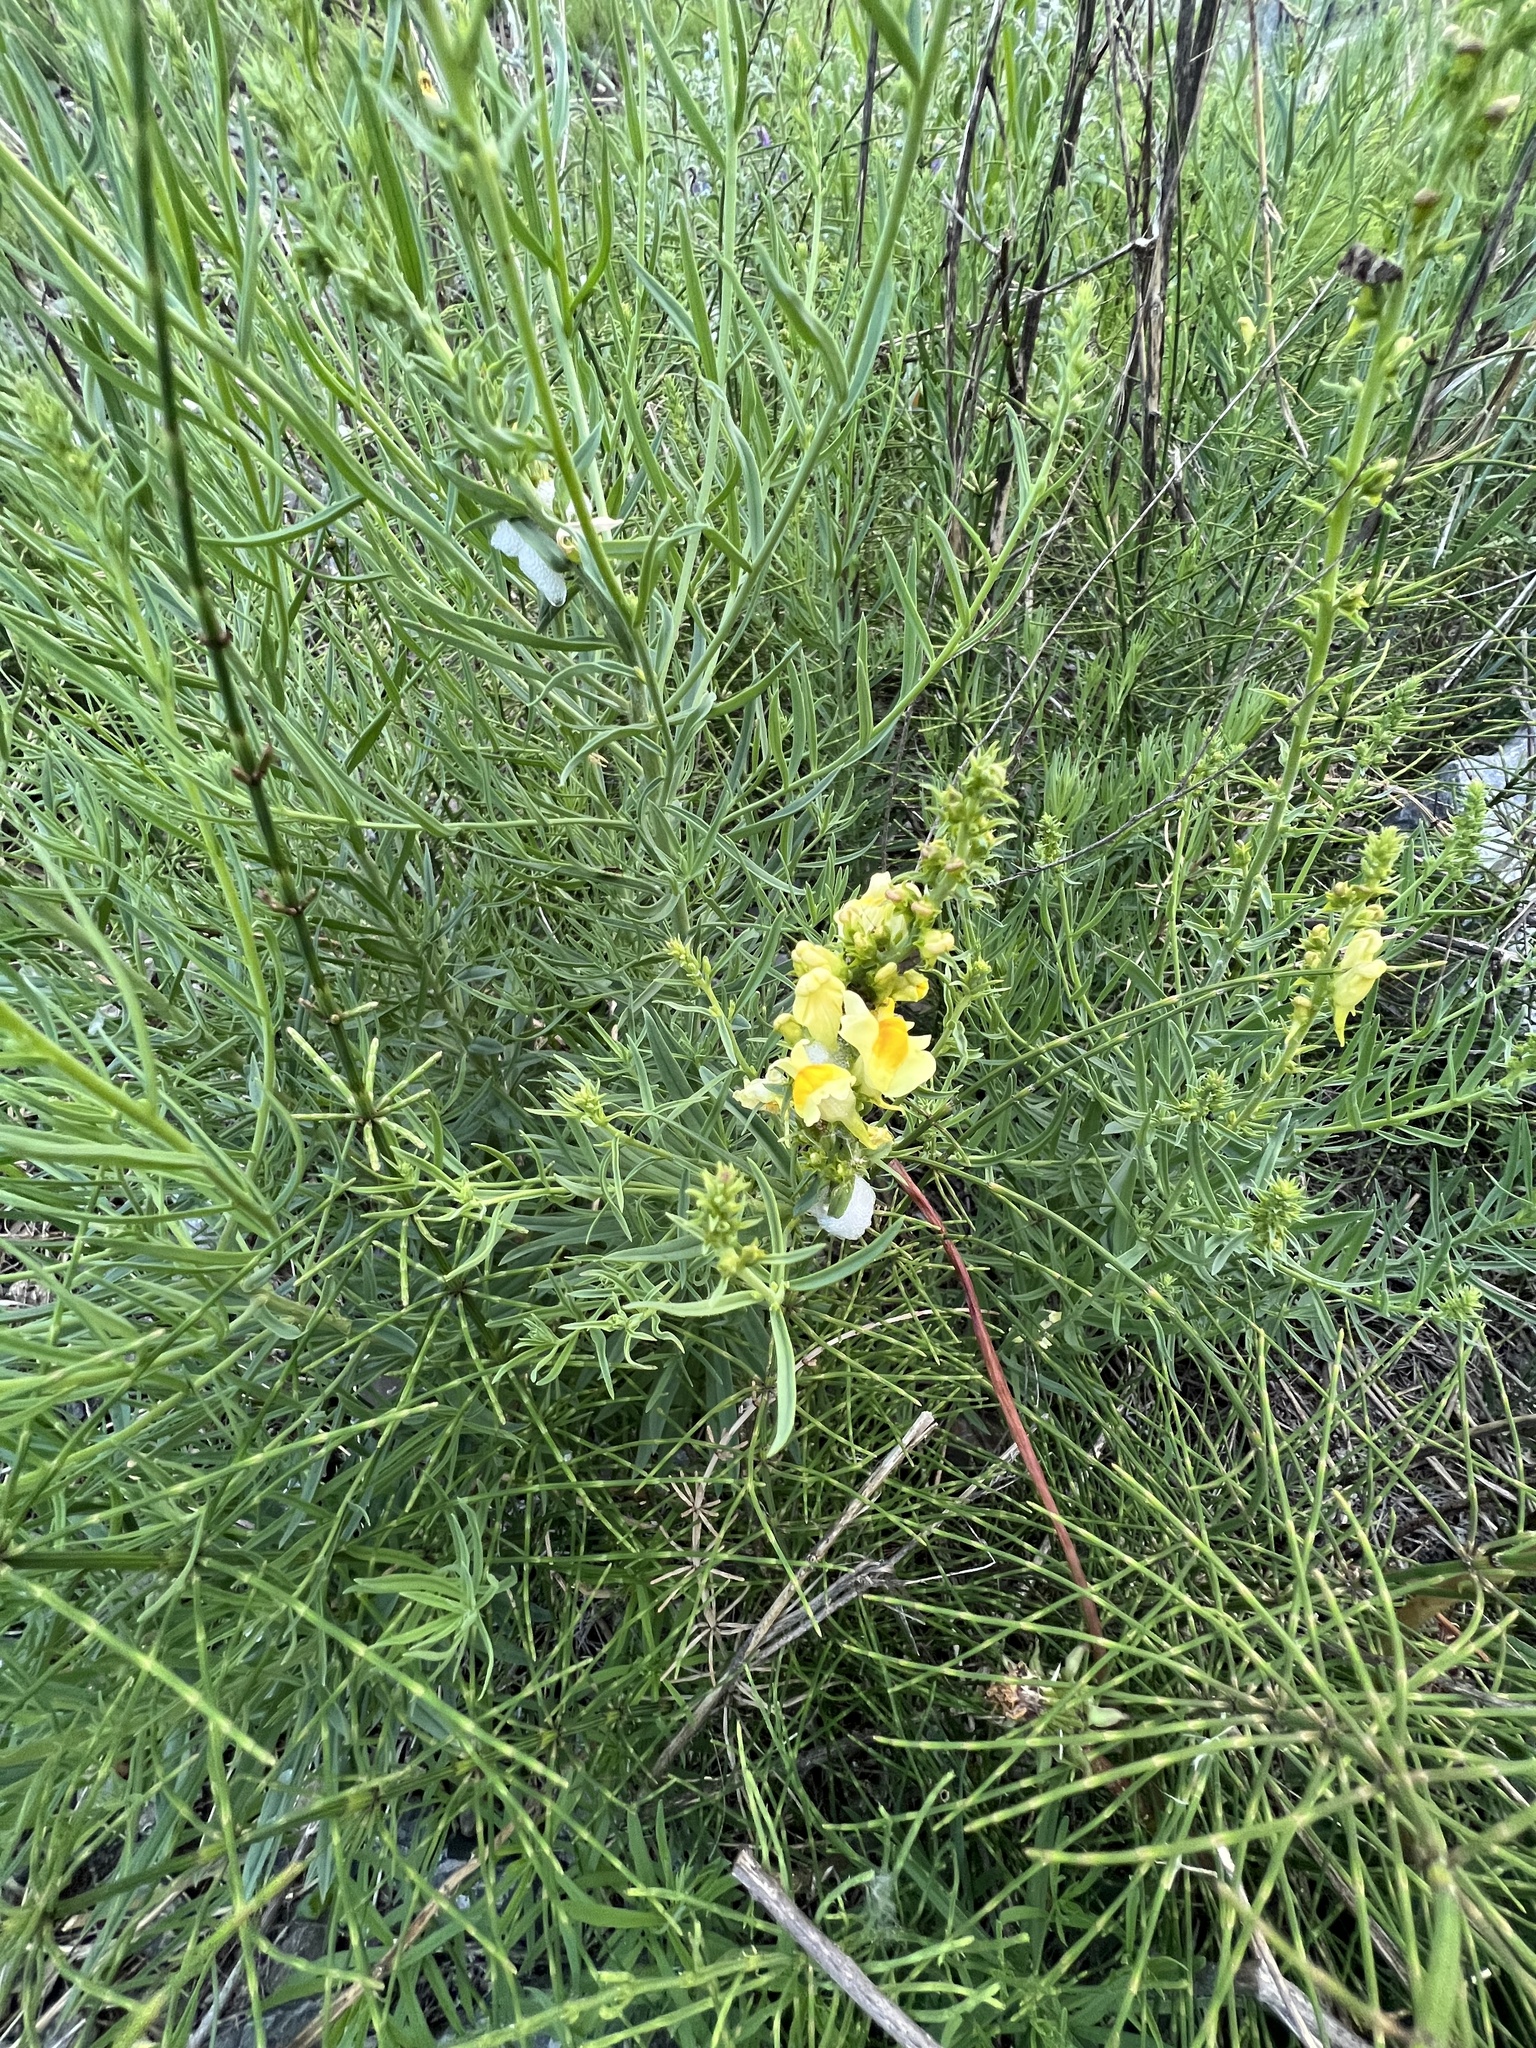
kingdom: Plantae
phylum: Tracheophyta
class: Magnoliopsida
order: Lamiales
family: Plantaginaceae
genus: Linaria
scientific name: Linaria vulgaris
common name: Butter and eggs
